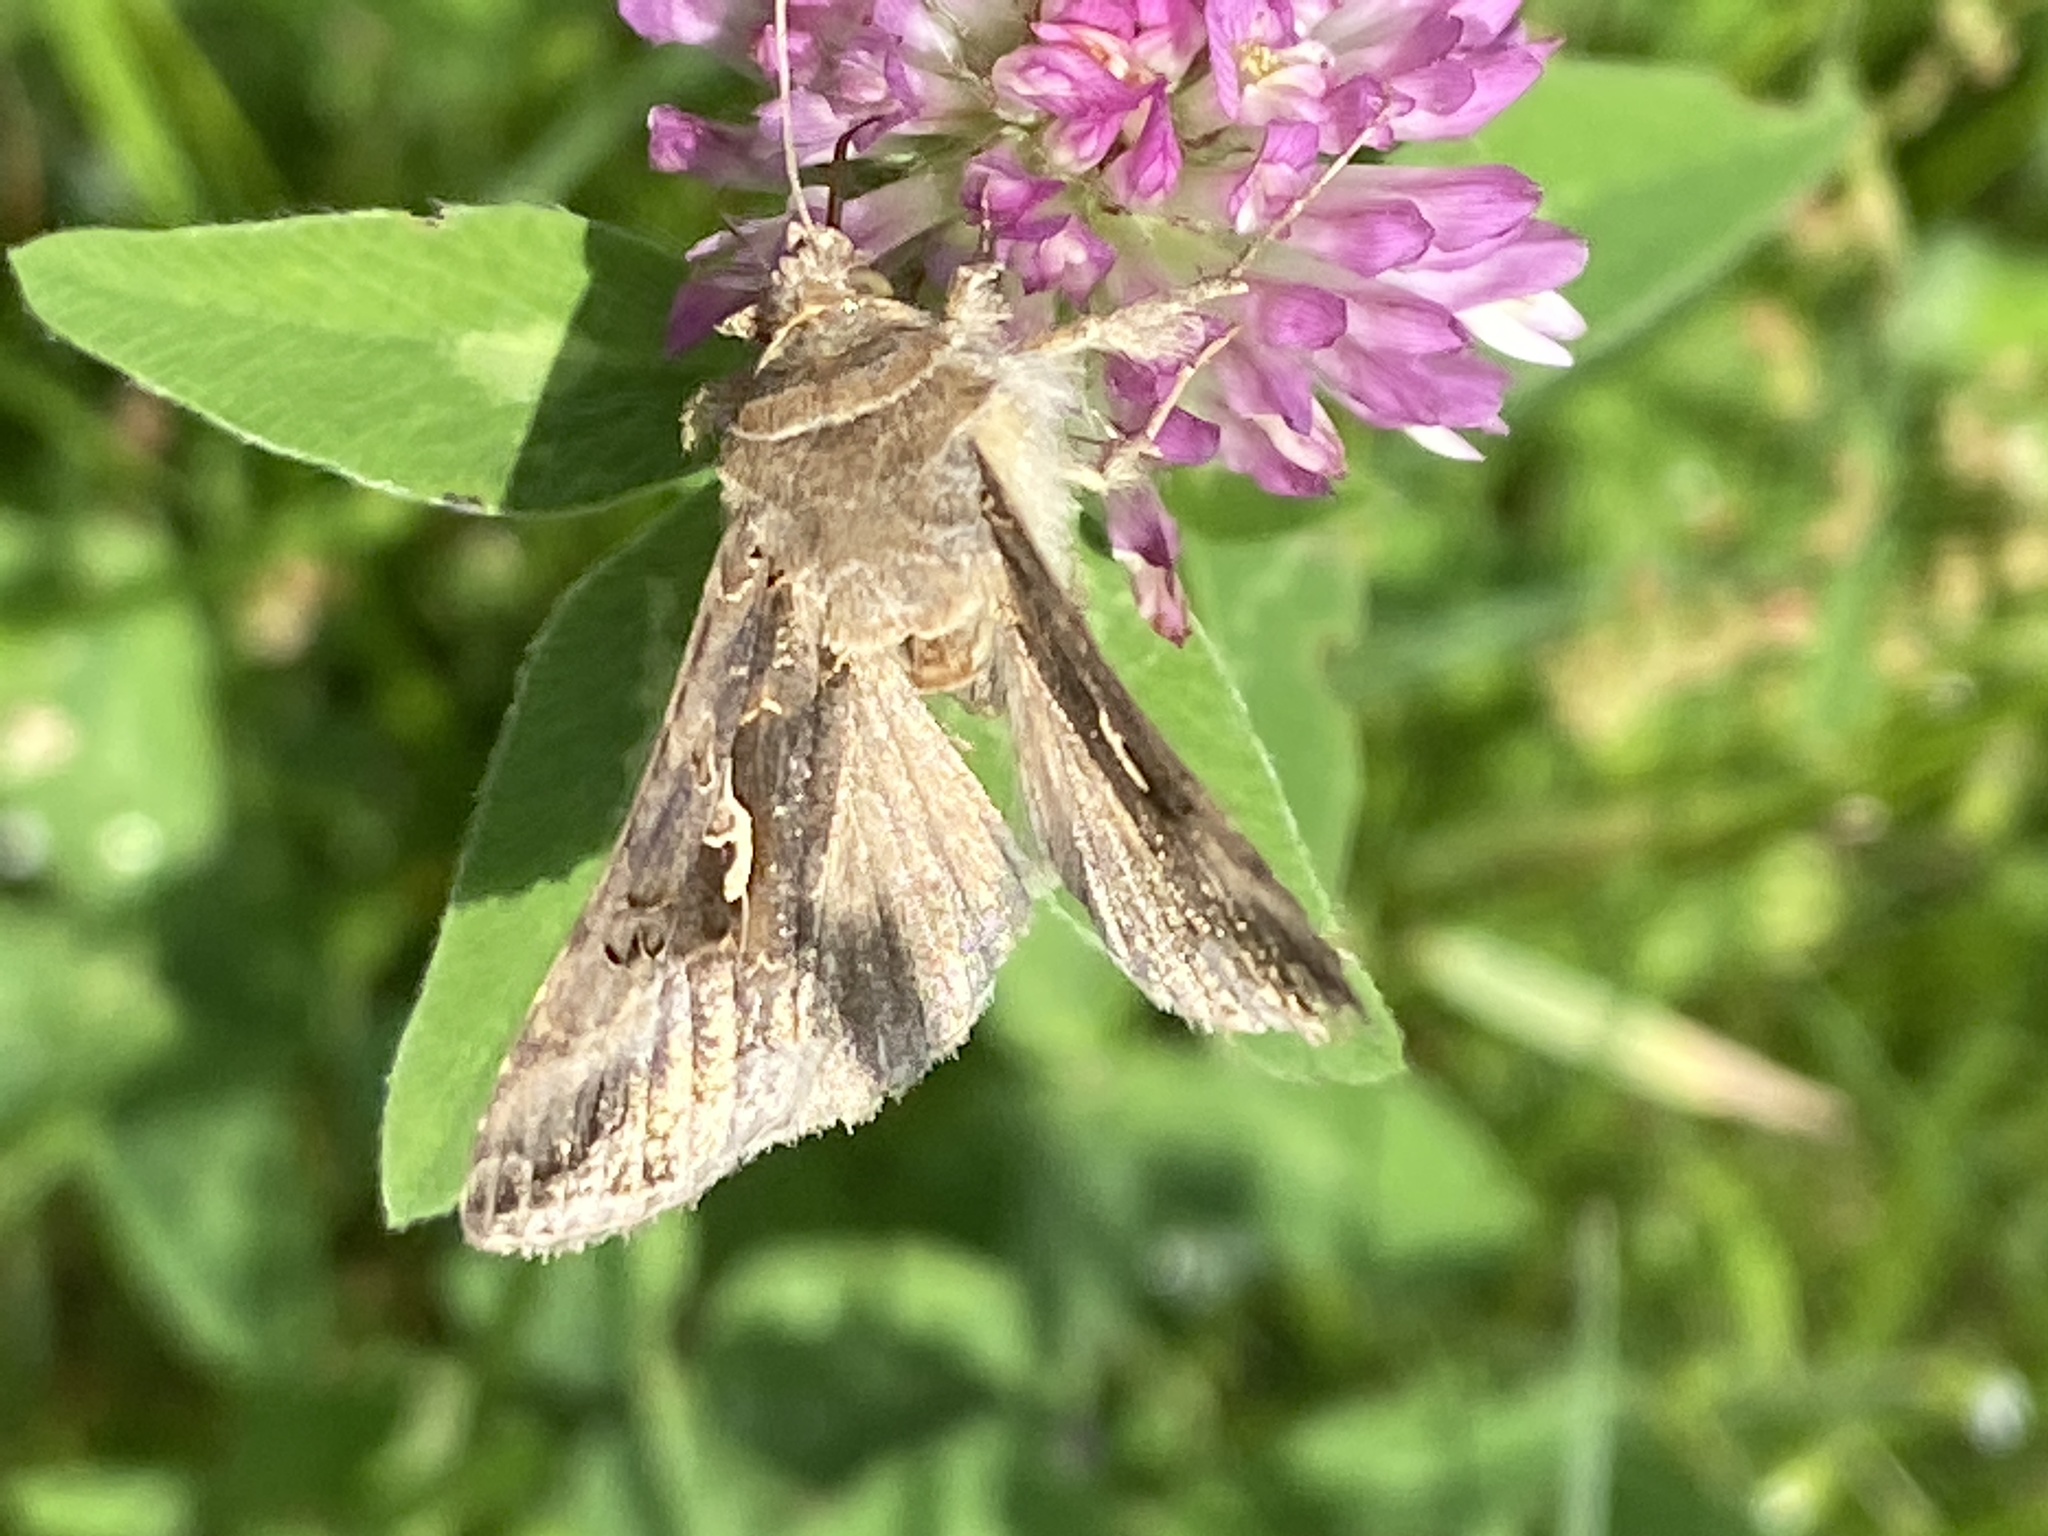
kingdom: Animalia
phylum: Arthropoda
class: Insecta
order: Lepidoptera
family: Noctuidae
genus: Autographa
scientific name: Autographa gamma
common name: Silver y
